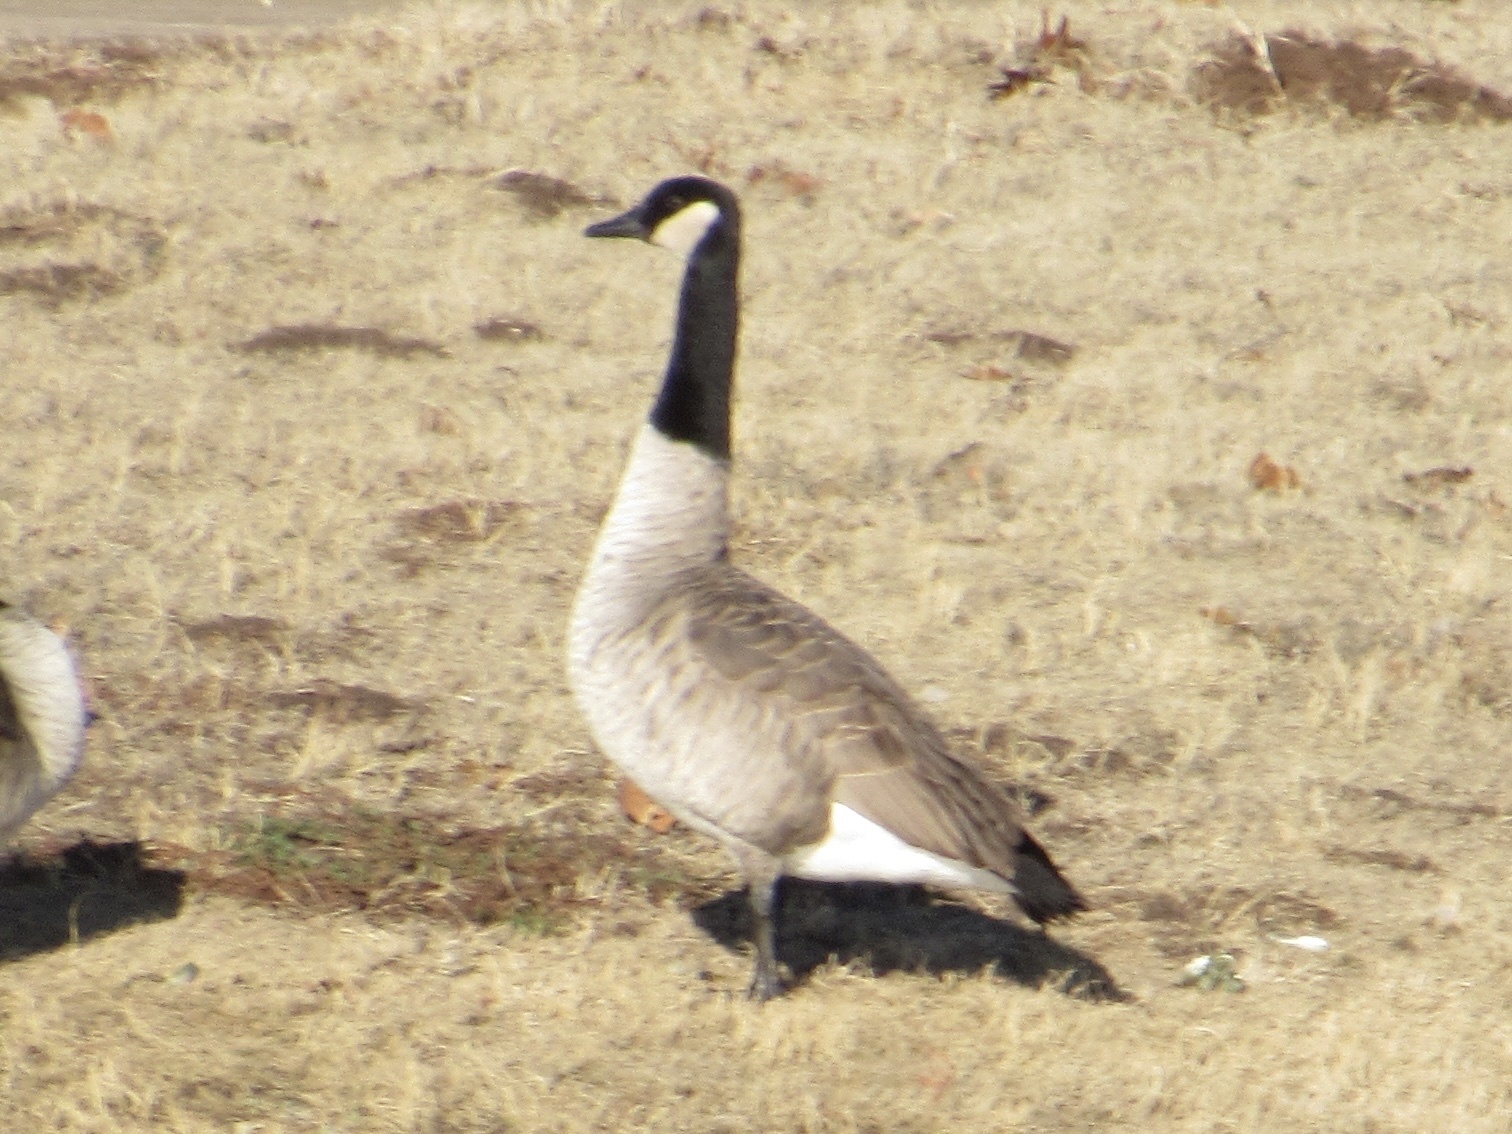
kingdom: Animalia
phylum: Chordata
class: Aves
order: Anseriformes
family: Anatidae
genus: Branta
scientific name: Branta canadensis
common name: Canada goose
